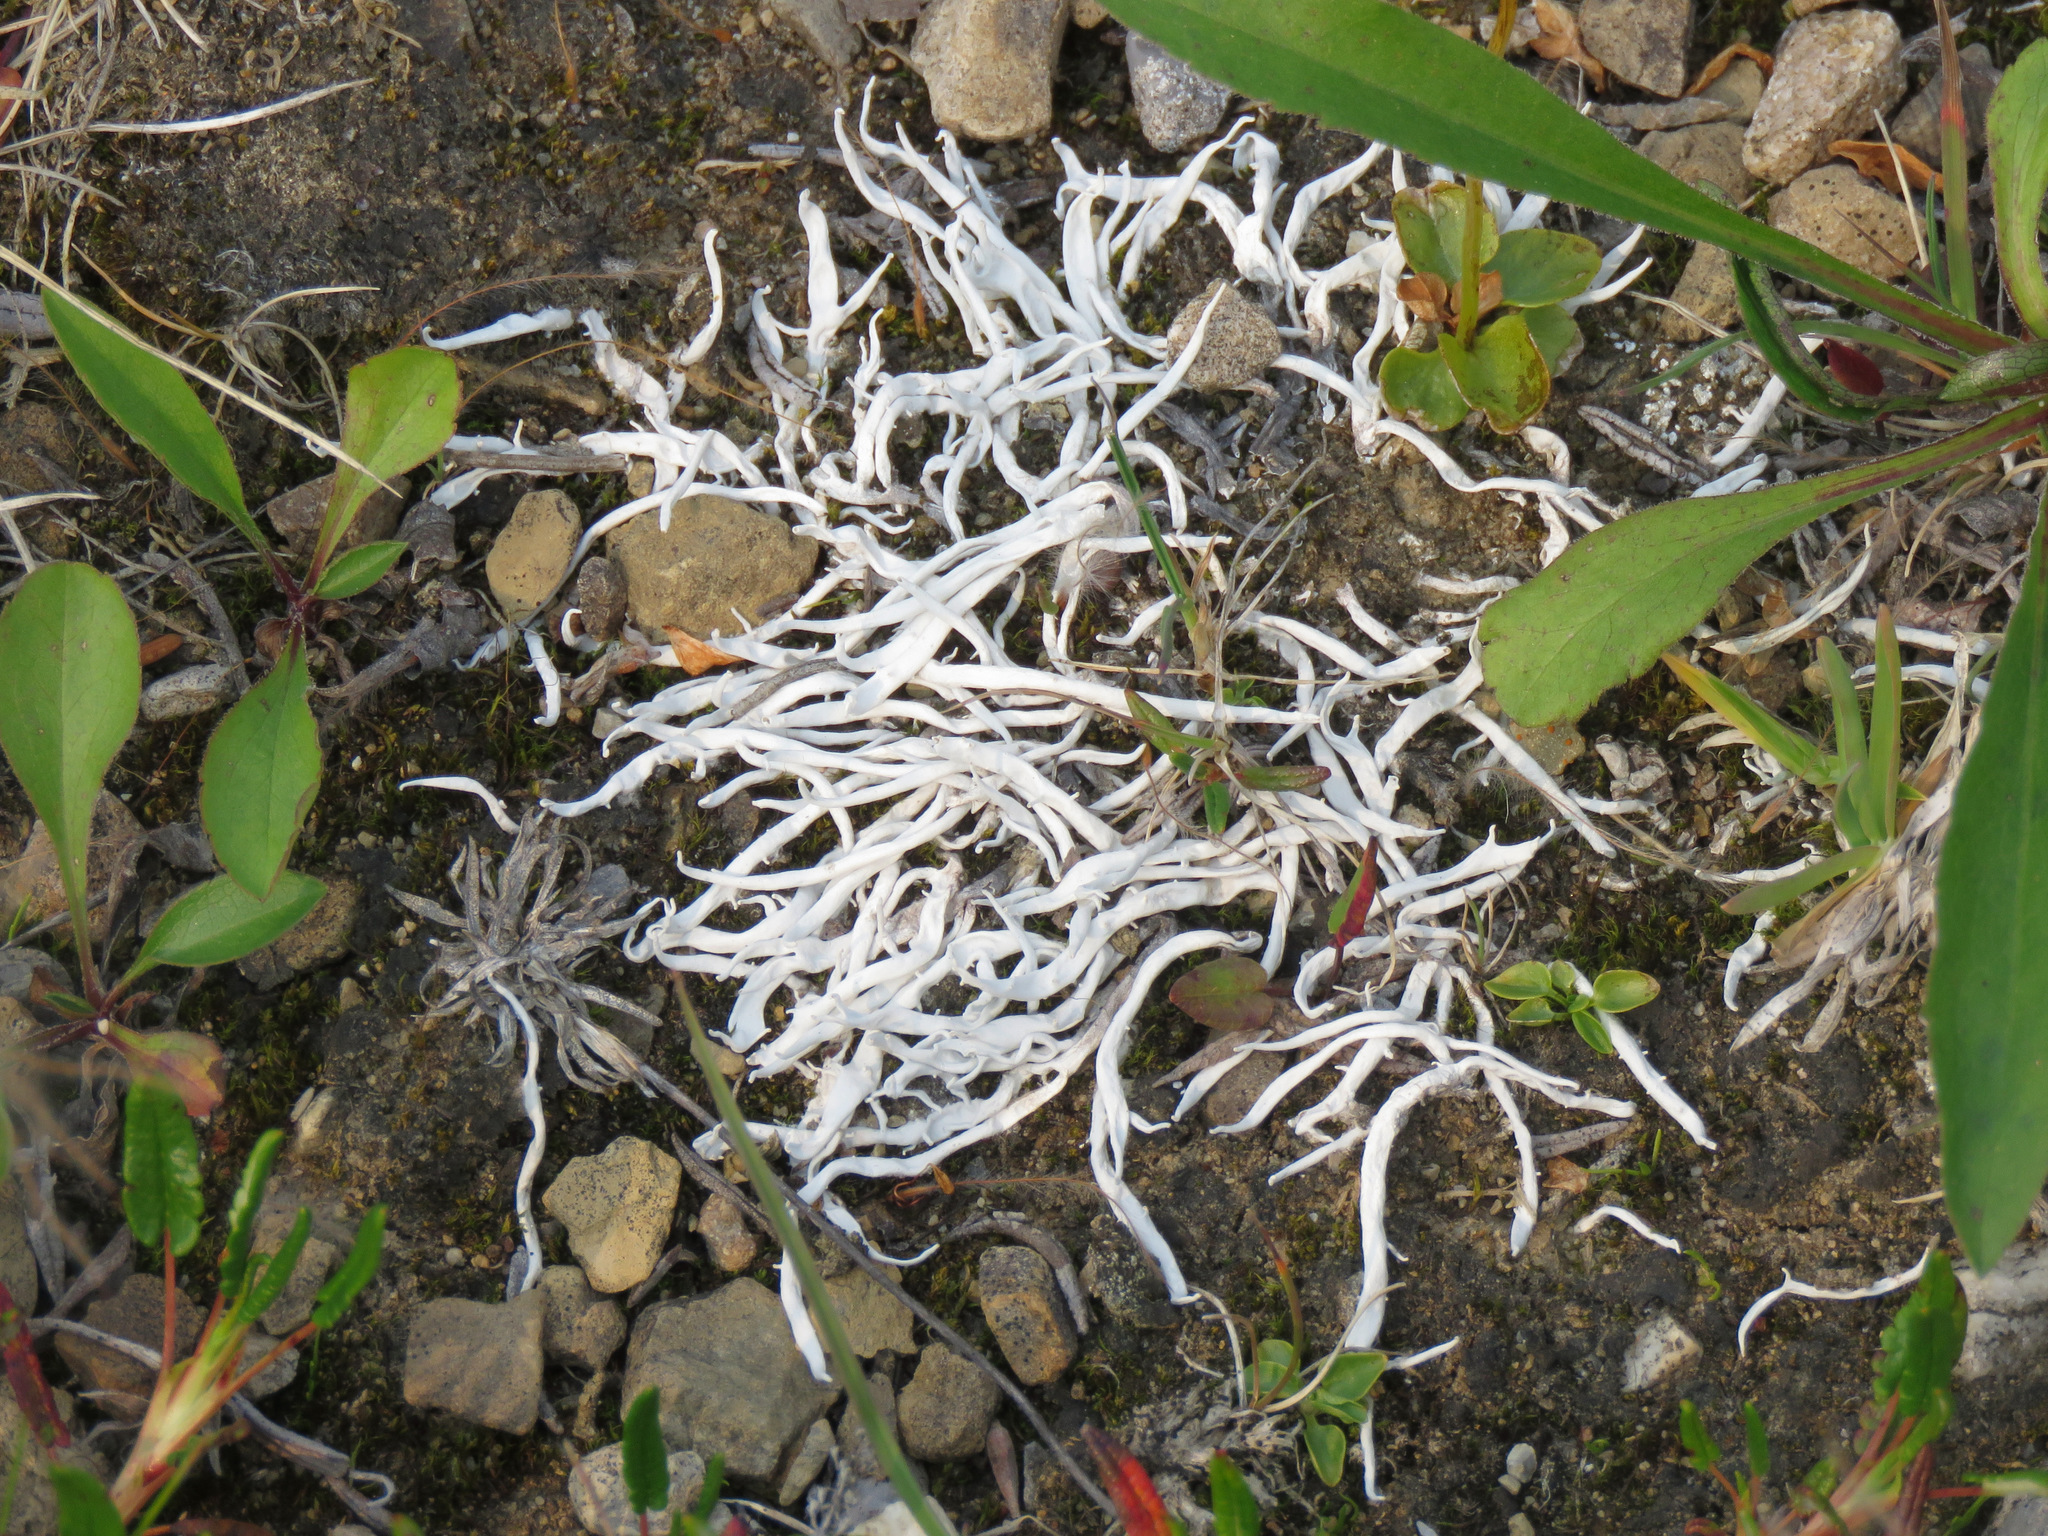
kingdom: Fungi
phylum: Ascomycota
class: Lecanoromycetes
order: Pertusariales
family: Icmadophilaceae
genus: Thamnolia
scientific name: Thamnolia vermicularis
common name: Whiteworm lichen
